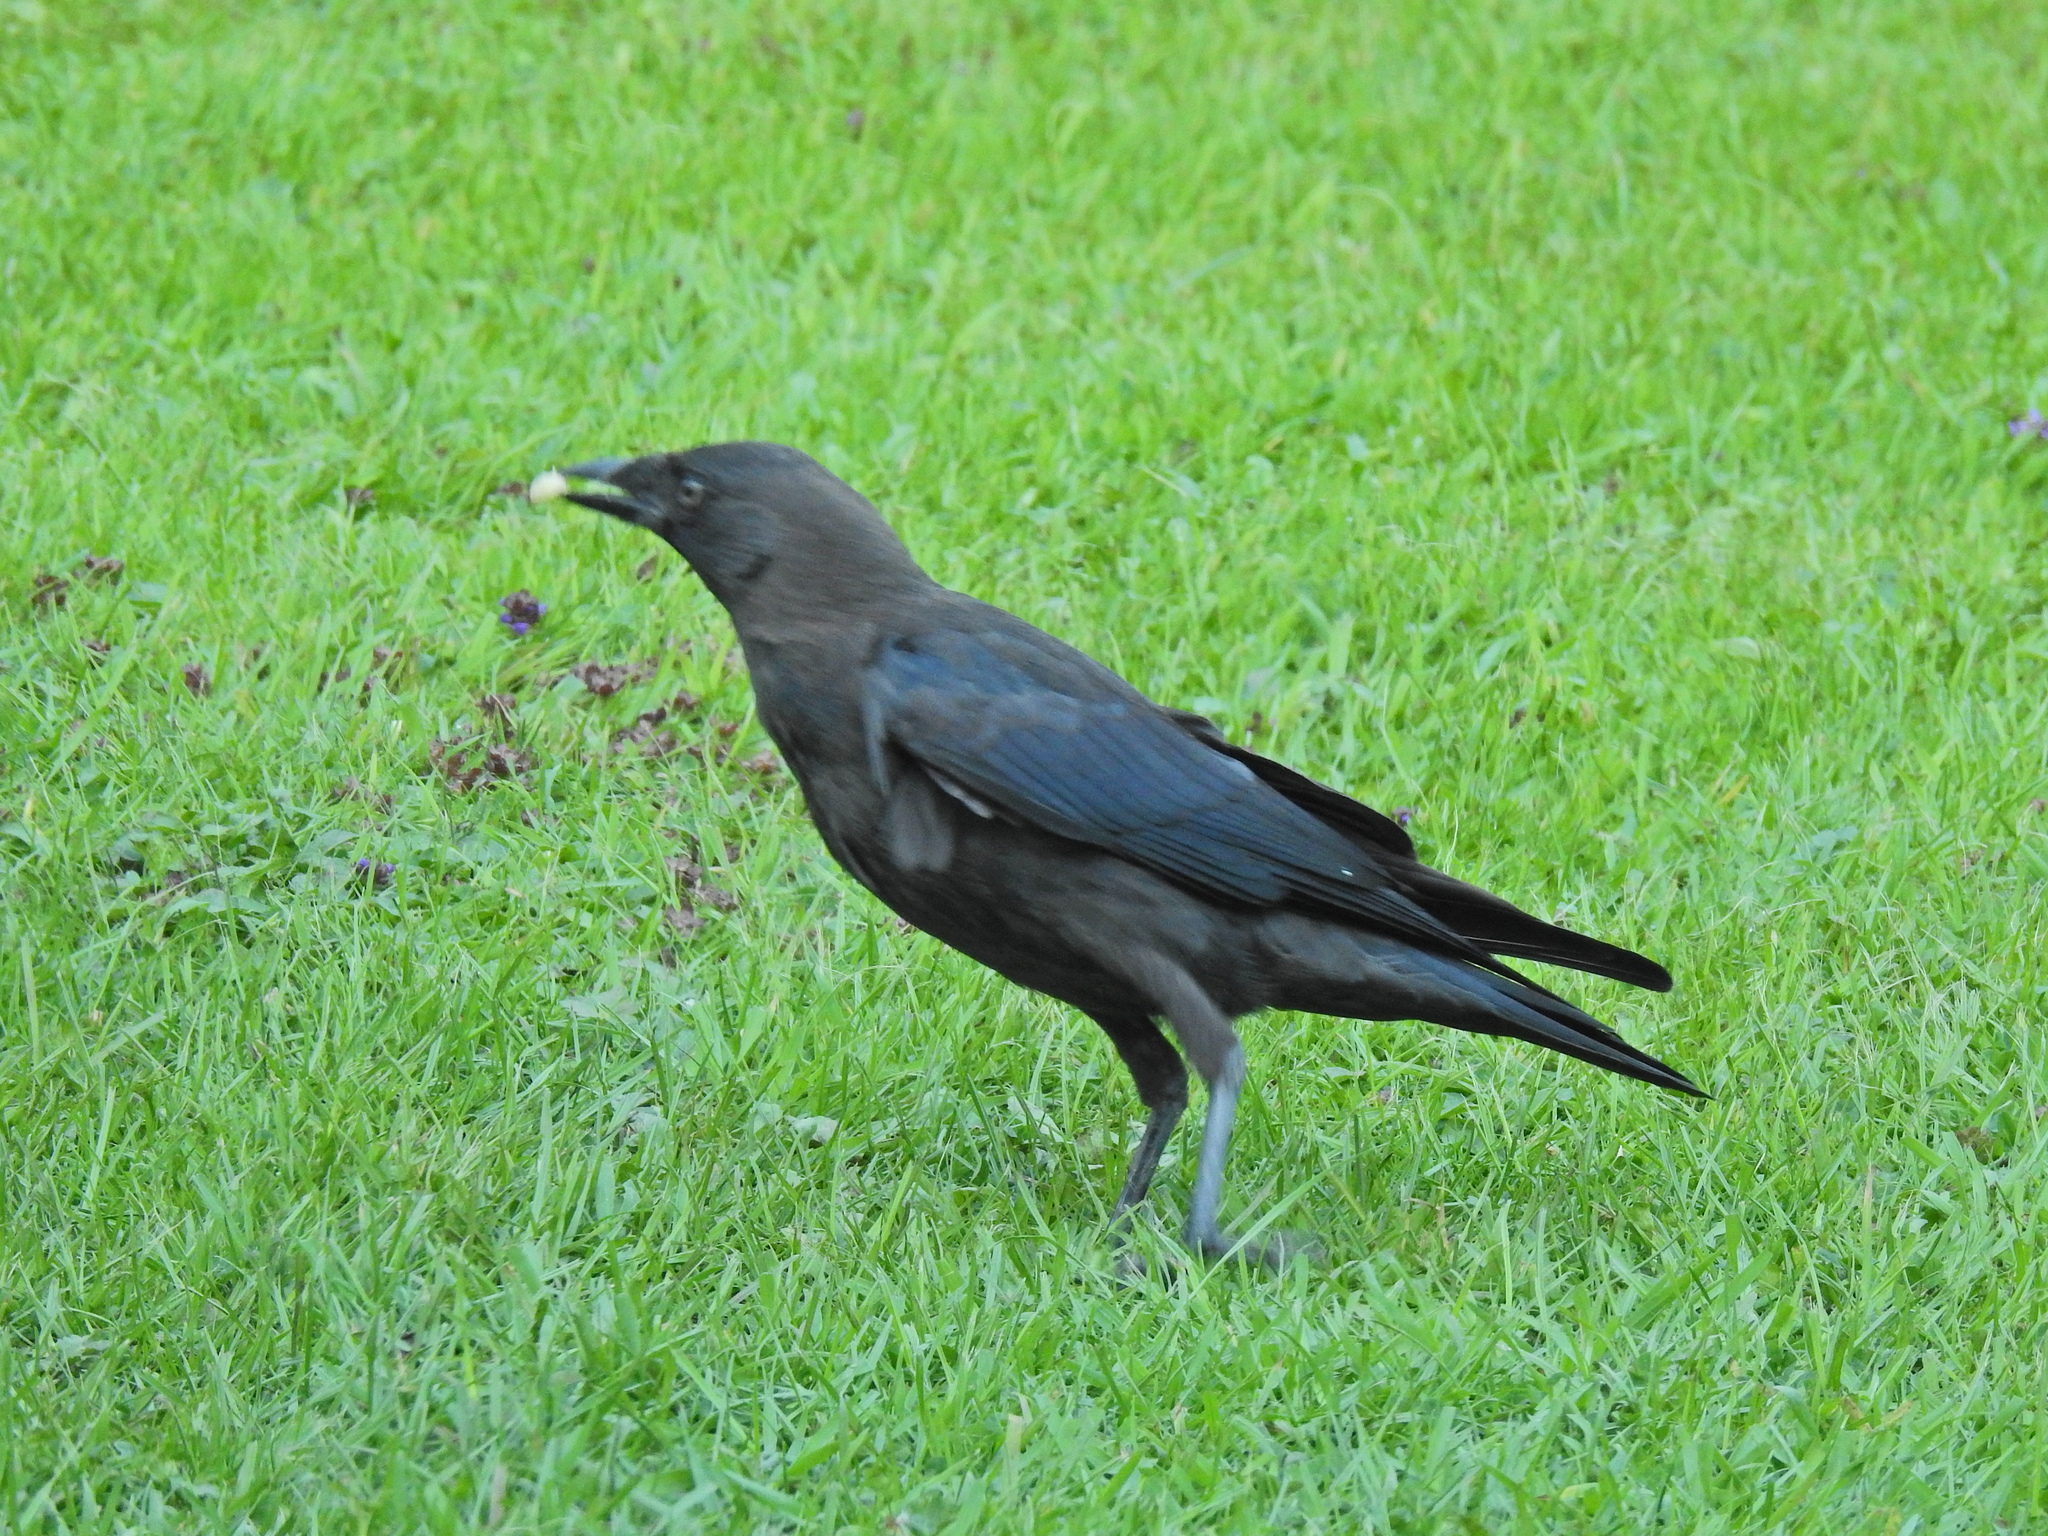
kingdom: Animalia
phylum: Chordata
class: Aves
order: Passeriformes
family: Corvidae
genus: Coloeus
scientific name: Coloeus monedula
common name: Western jackdaw
